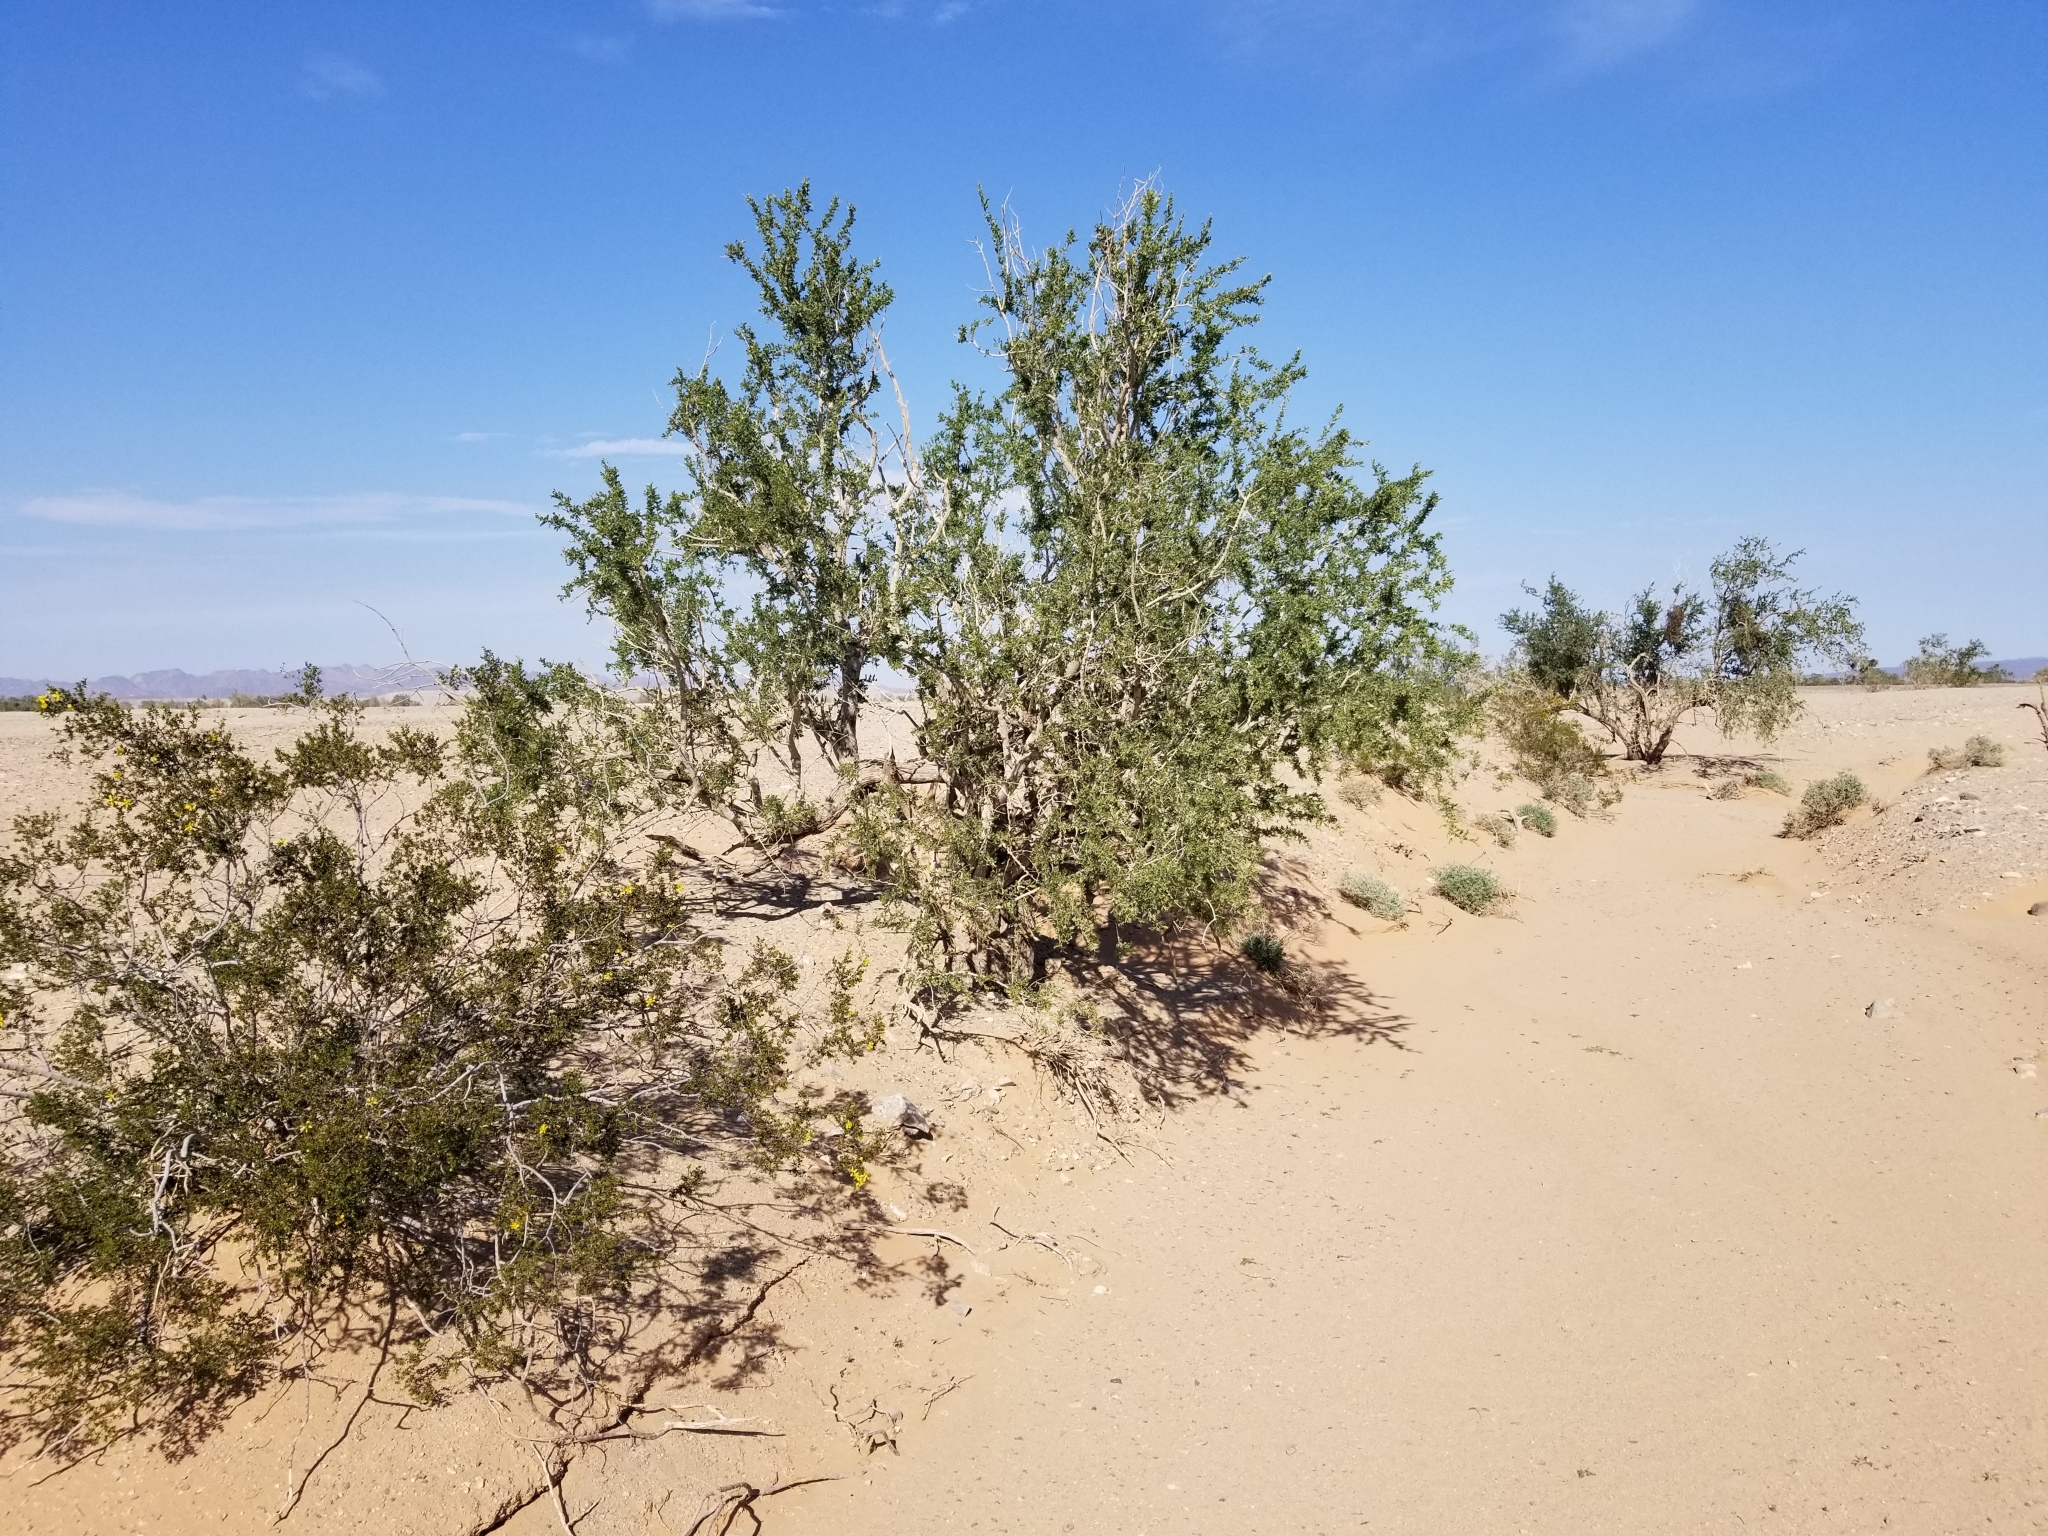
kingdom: Plantae
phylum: Tracheophyta
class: Magnoliopsida
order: Zygophyllales
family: Zygophyllaceae
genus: Larrea
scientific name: Larrea tridentata
